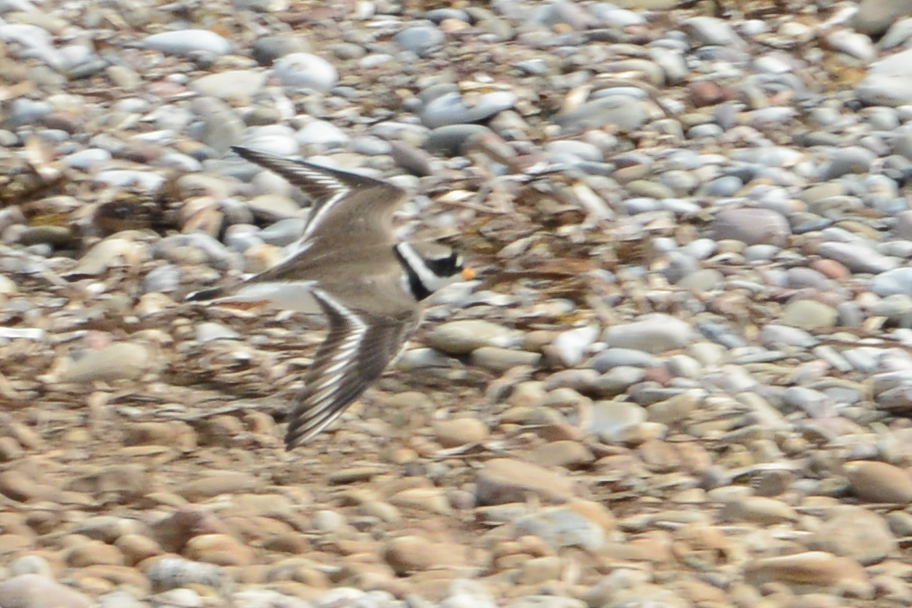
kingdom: Animalia
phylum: Chordata
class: Aves
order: Charadriiformes
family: Charadriidae
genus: Charadrius
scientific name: Charadrius hiaticula
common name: Common ringed plover
